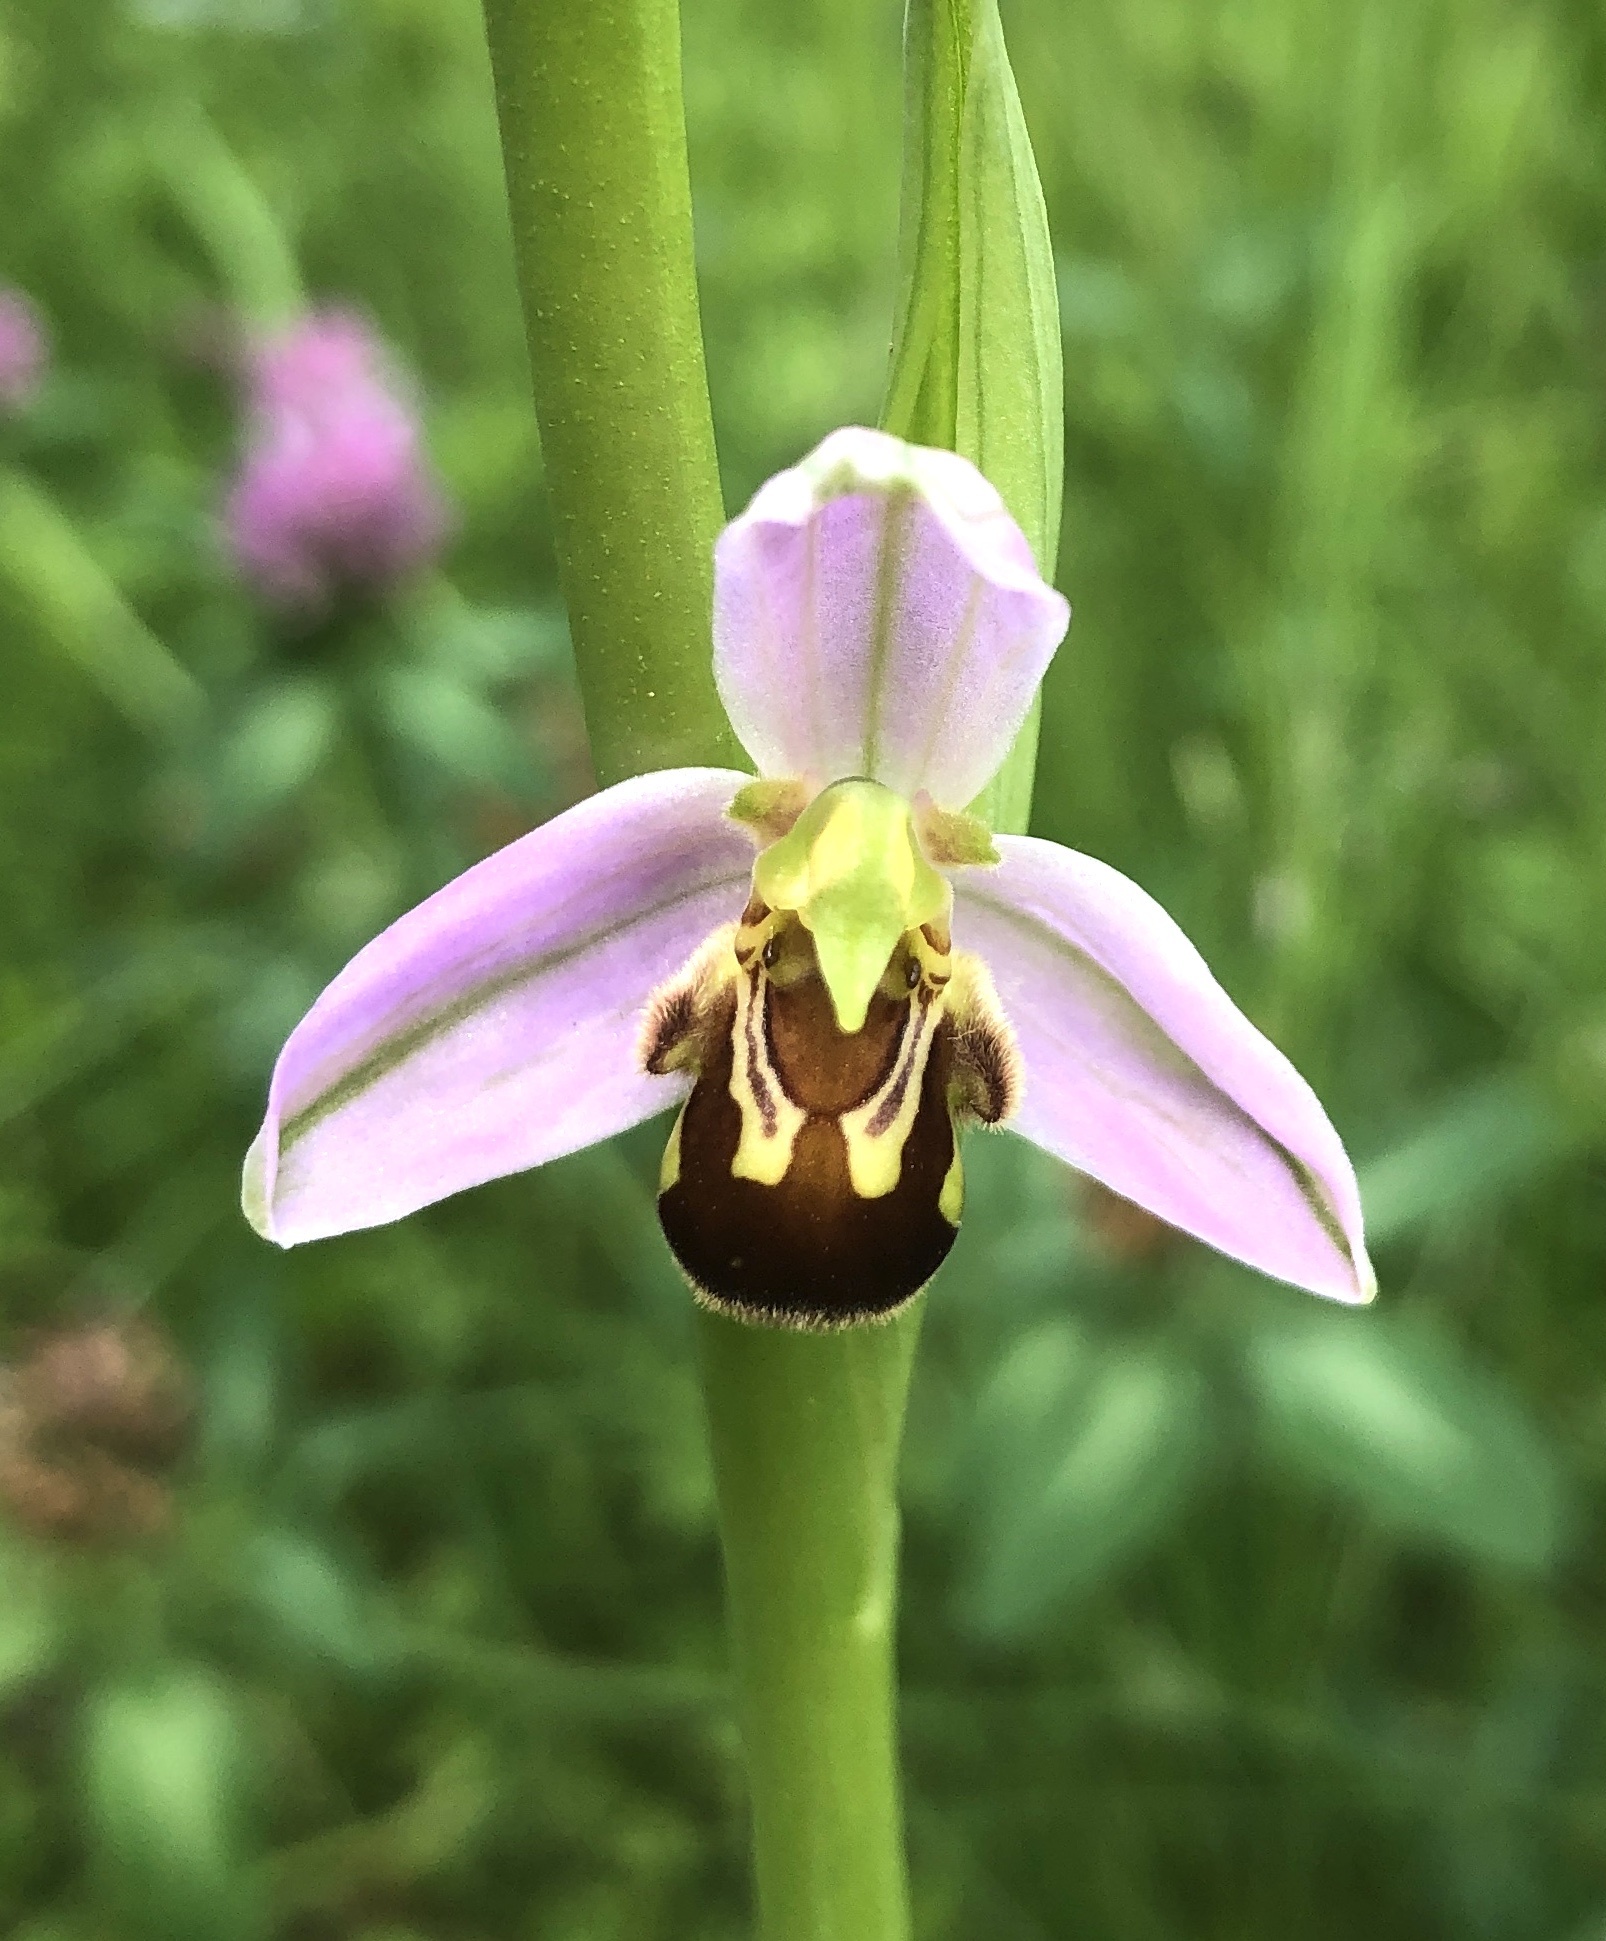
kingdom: Plantae
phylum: Tracheophyta
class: Liliopsida
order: Asparagales
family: Orchidaceae
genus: Ophrys
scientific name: Ophrys apifera
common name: Bee orchid
